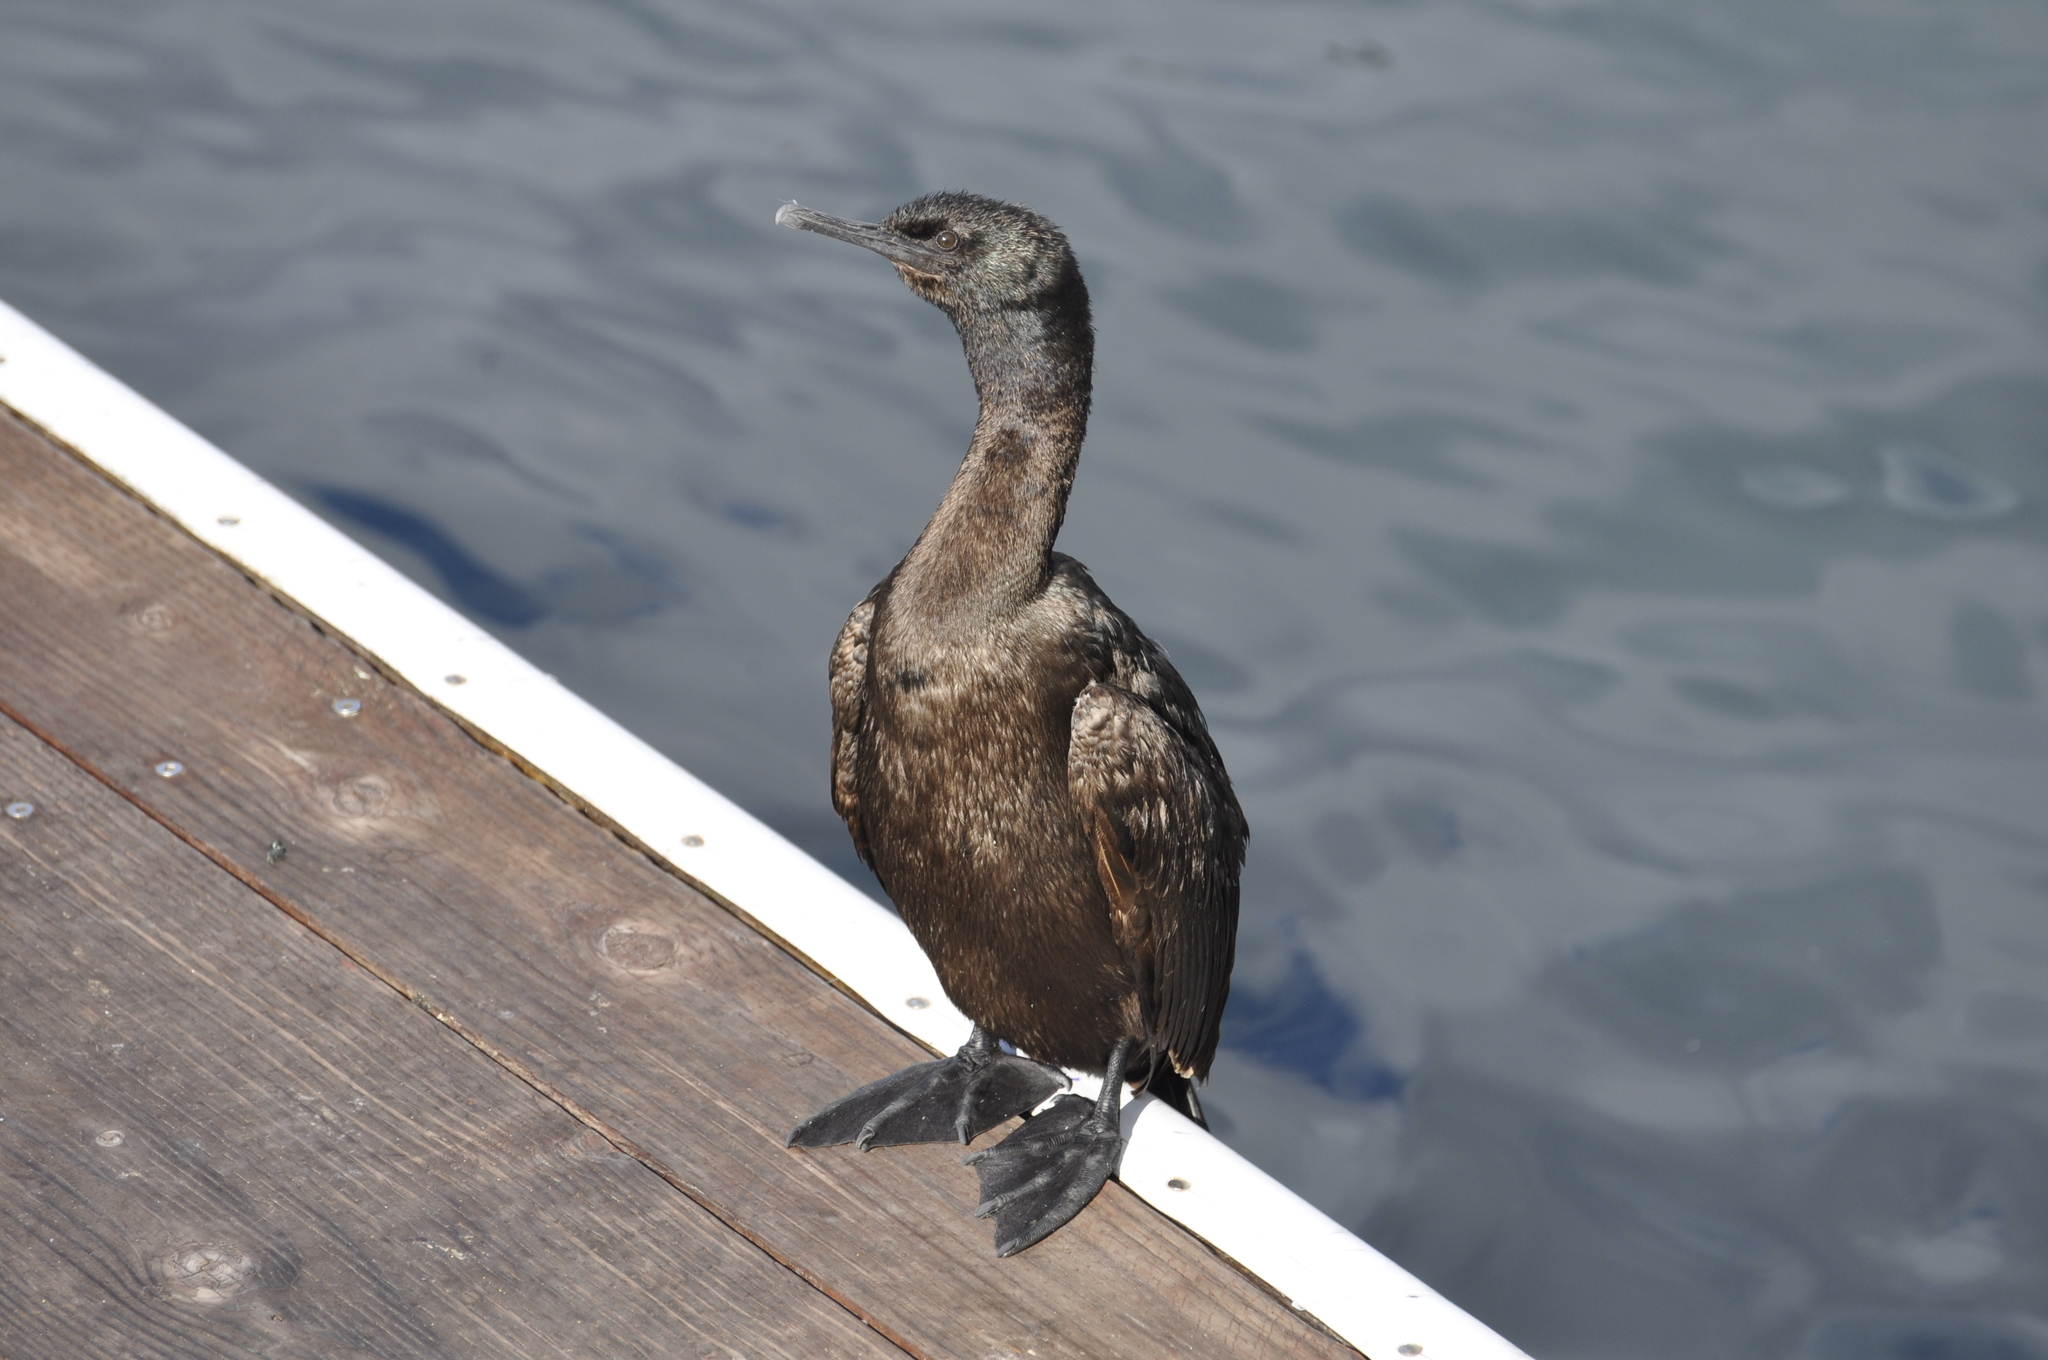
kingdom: Animalia
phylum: Chordata
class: Aves
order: Suliformes
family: Phalacrocoracidae
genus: Phalacrocorax
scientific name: Phalacrocorax pelagicus
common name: Pelagic cormorant
